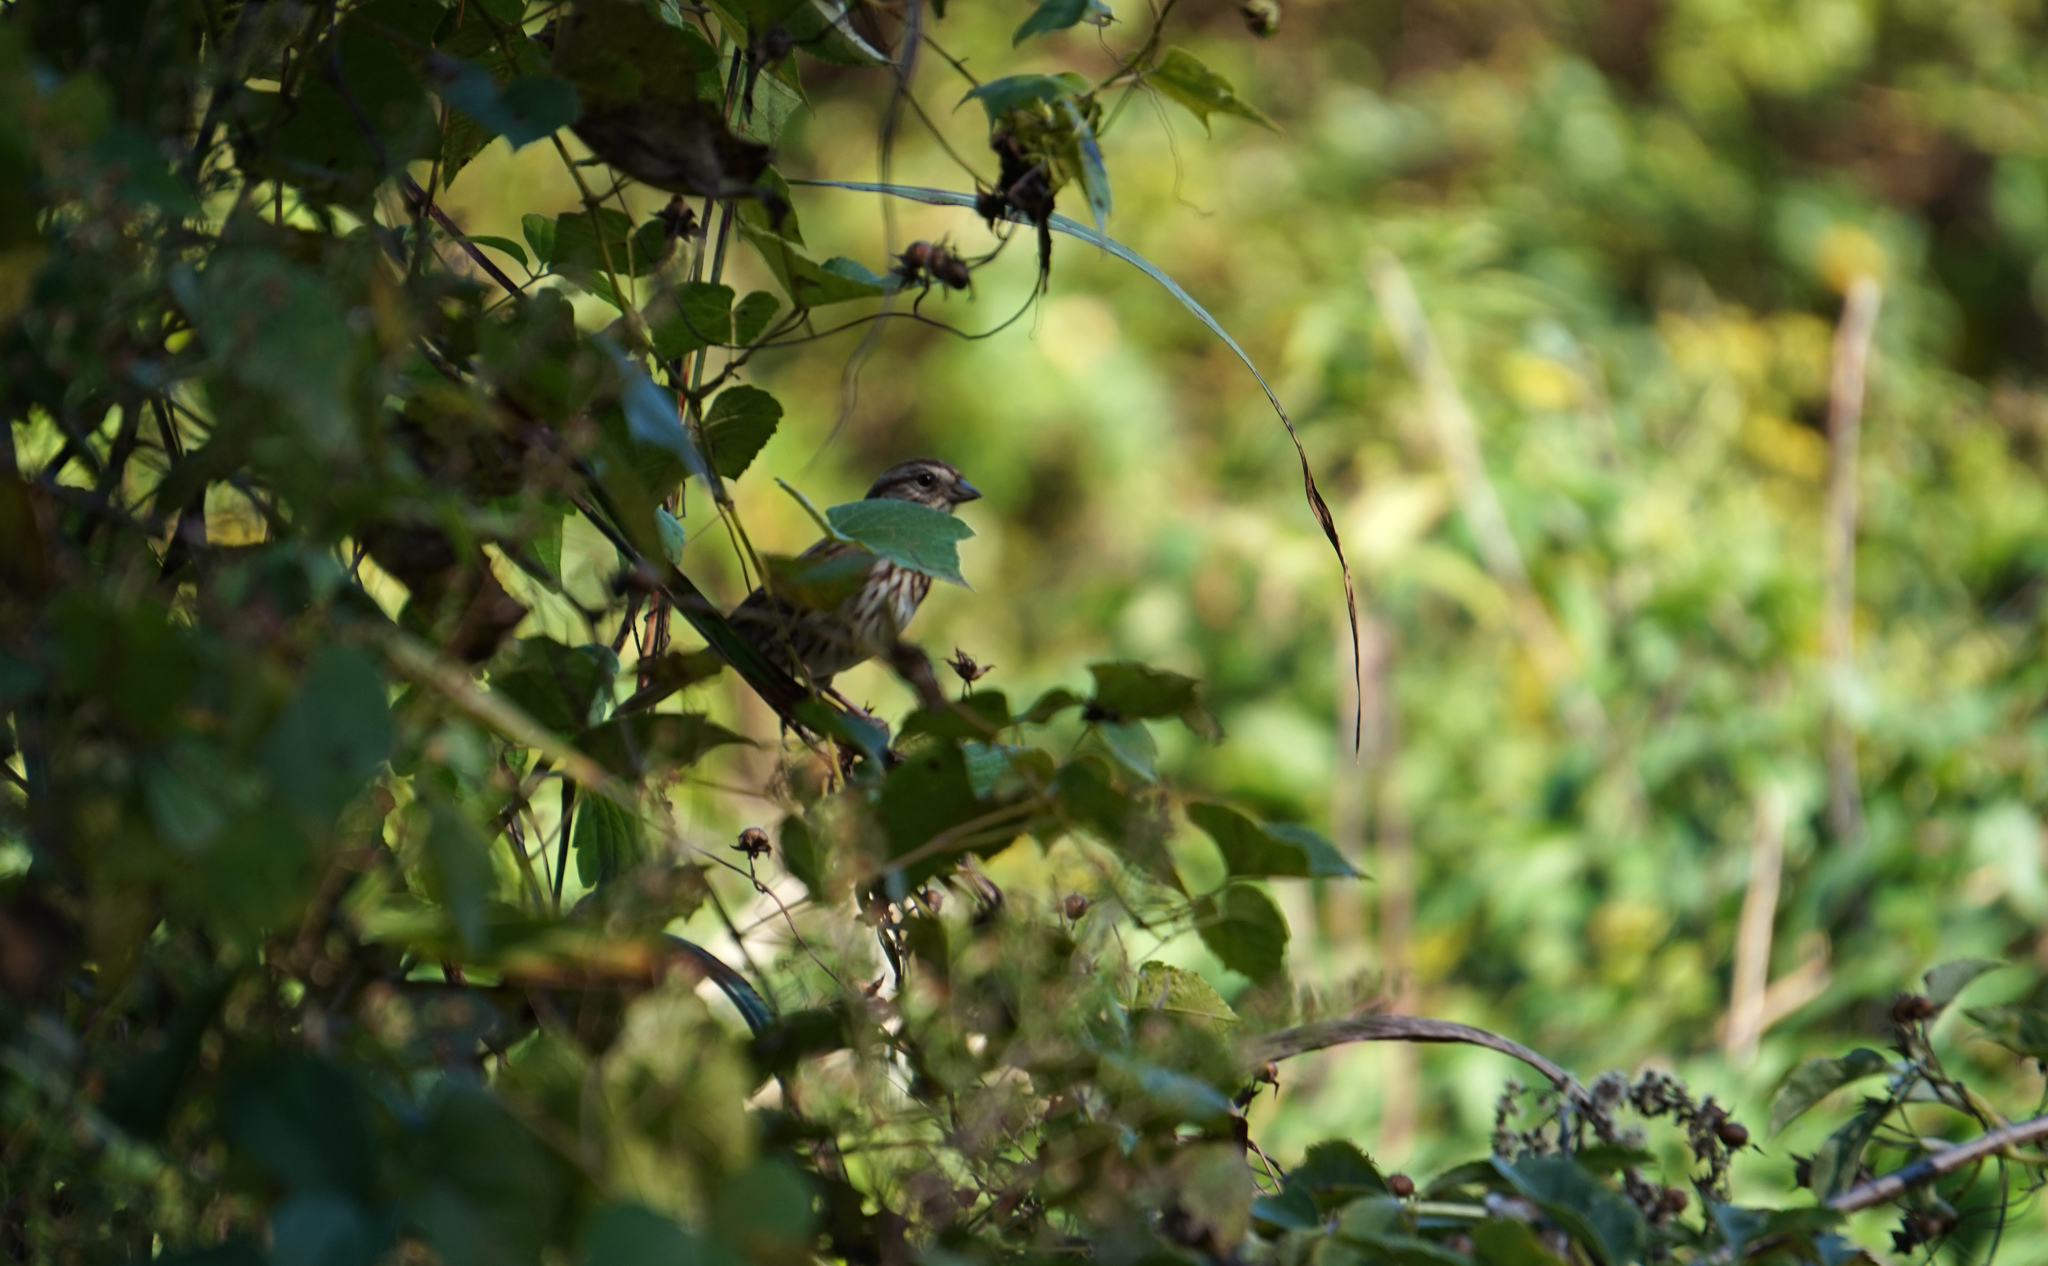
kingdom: Animalia
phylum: Chordata
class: Aves
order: Passeriformes
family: Passerellidae
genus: Melospiza
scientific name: Melospiza melodia
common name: Song sparrow
